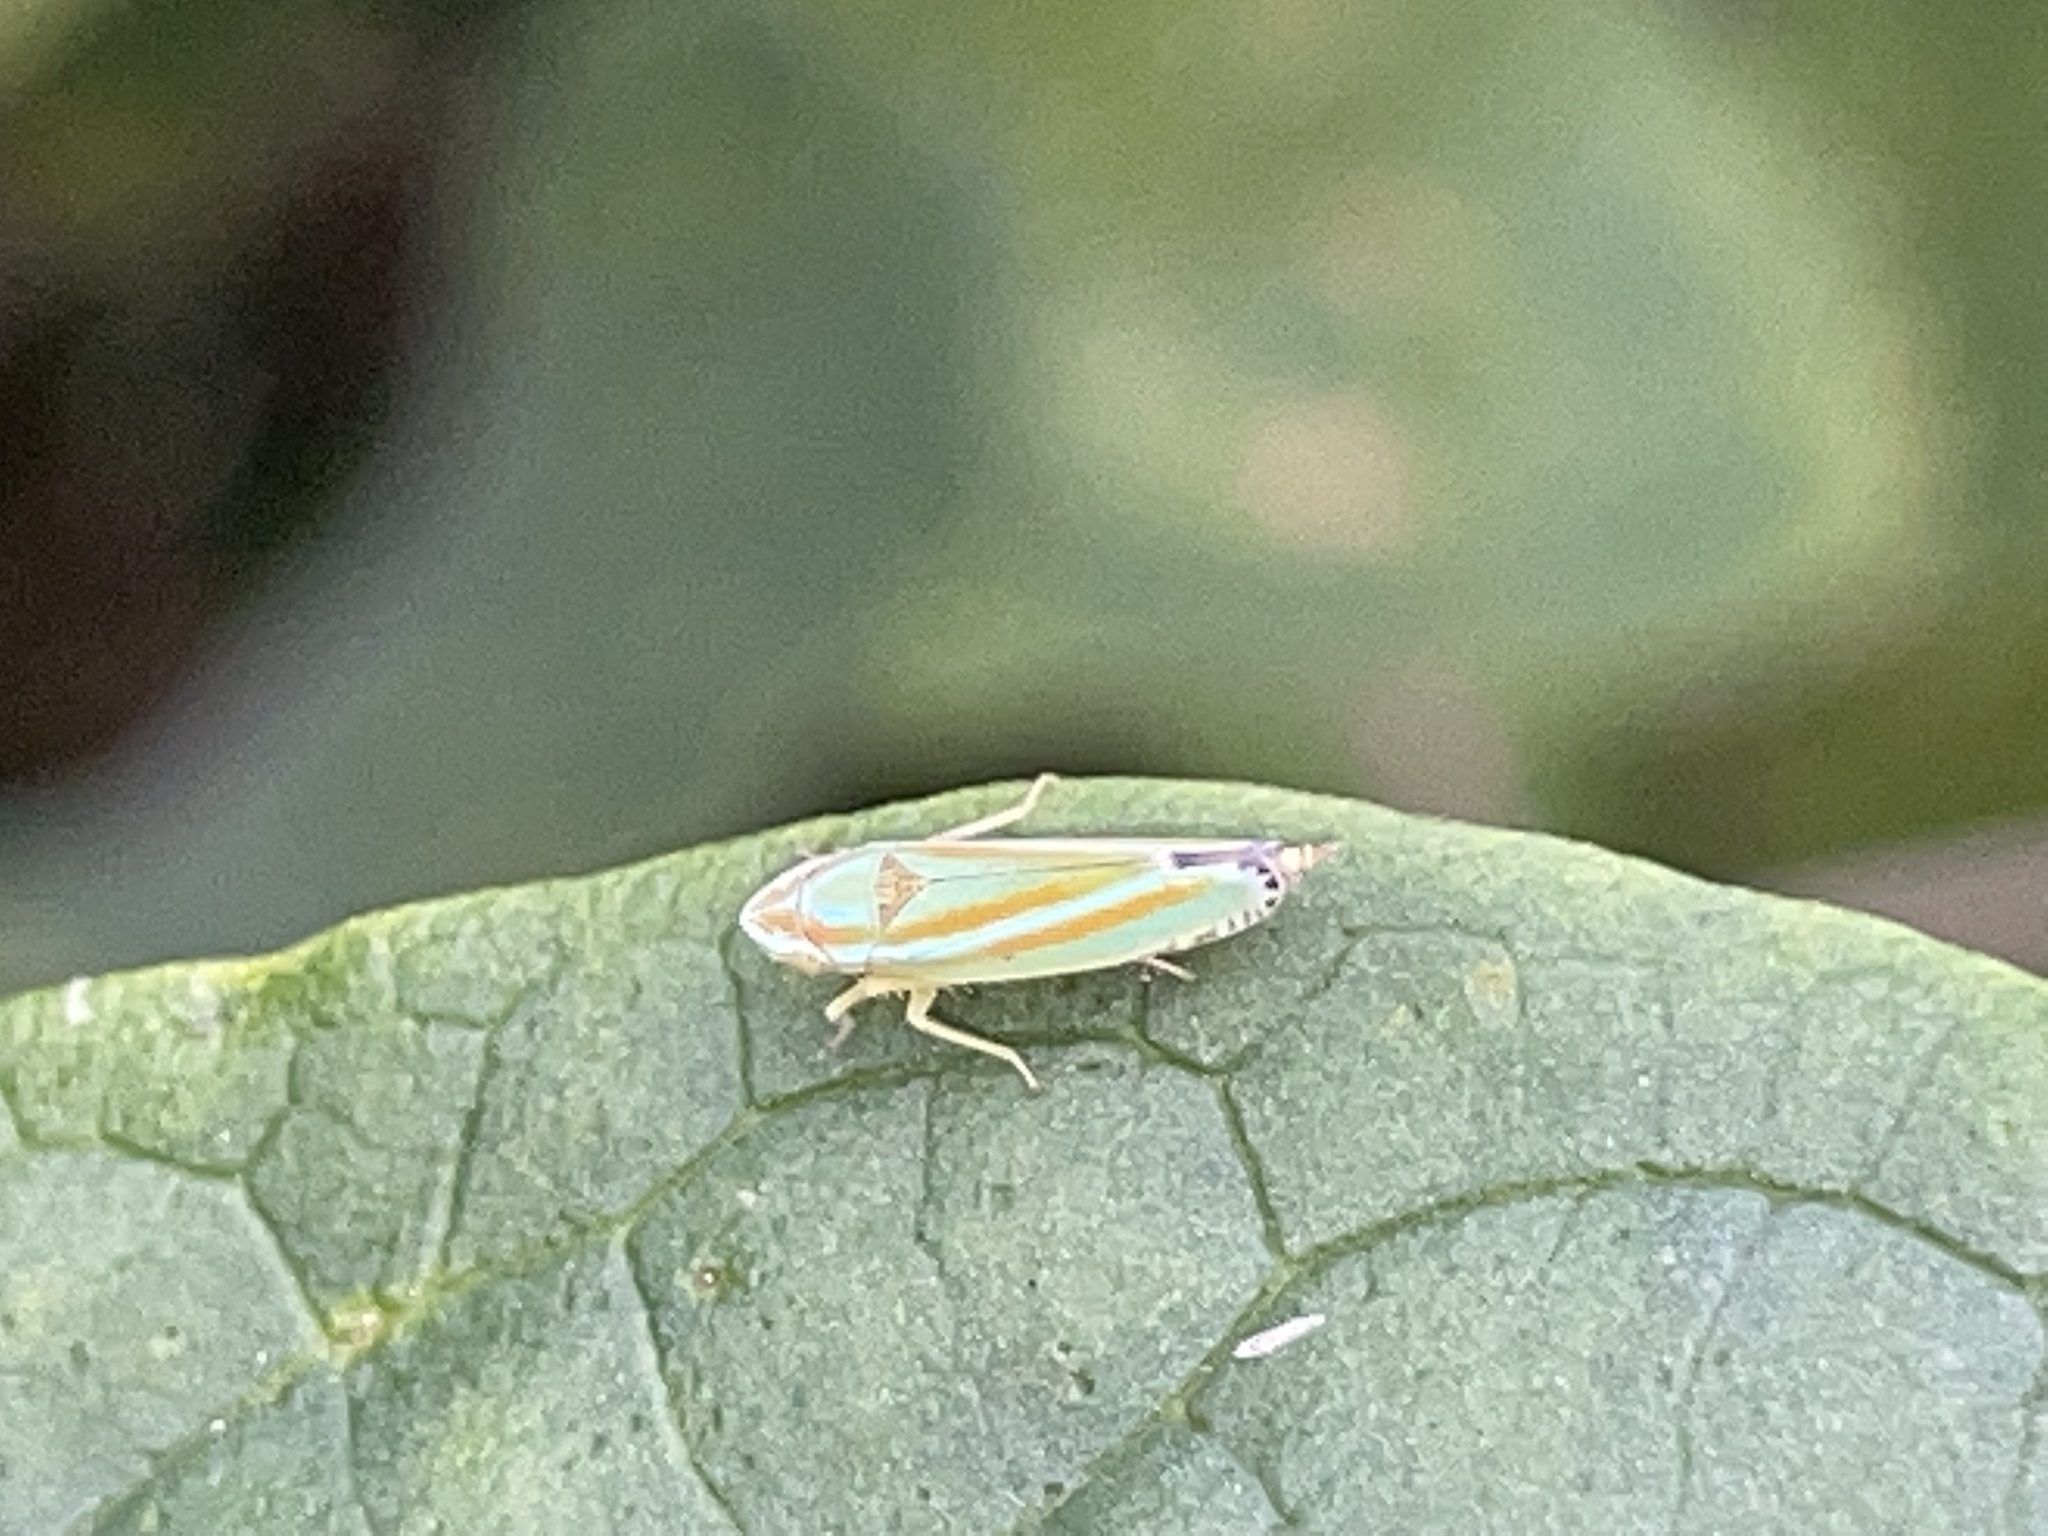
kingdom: Animalia
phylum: Arthropoda
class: Insecta
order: Hemiptera
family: Cicadellidae
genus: Graphocephala
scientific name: Graphocephala versuta
